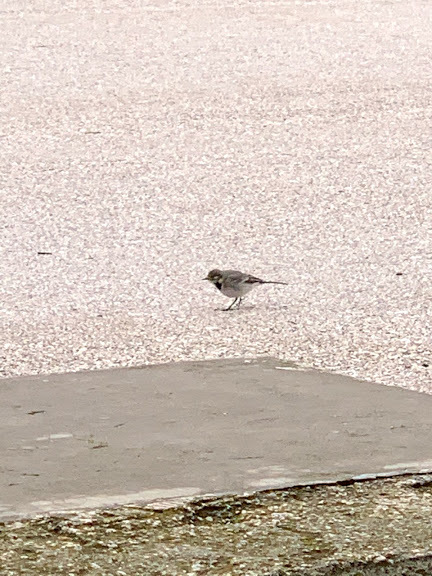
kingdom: Animalia
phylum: Chordata
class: Aves
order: Passeriformes
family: Motacillidae
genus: Motacilla
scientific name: Motacilla alba
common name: White wagtail
